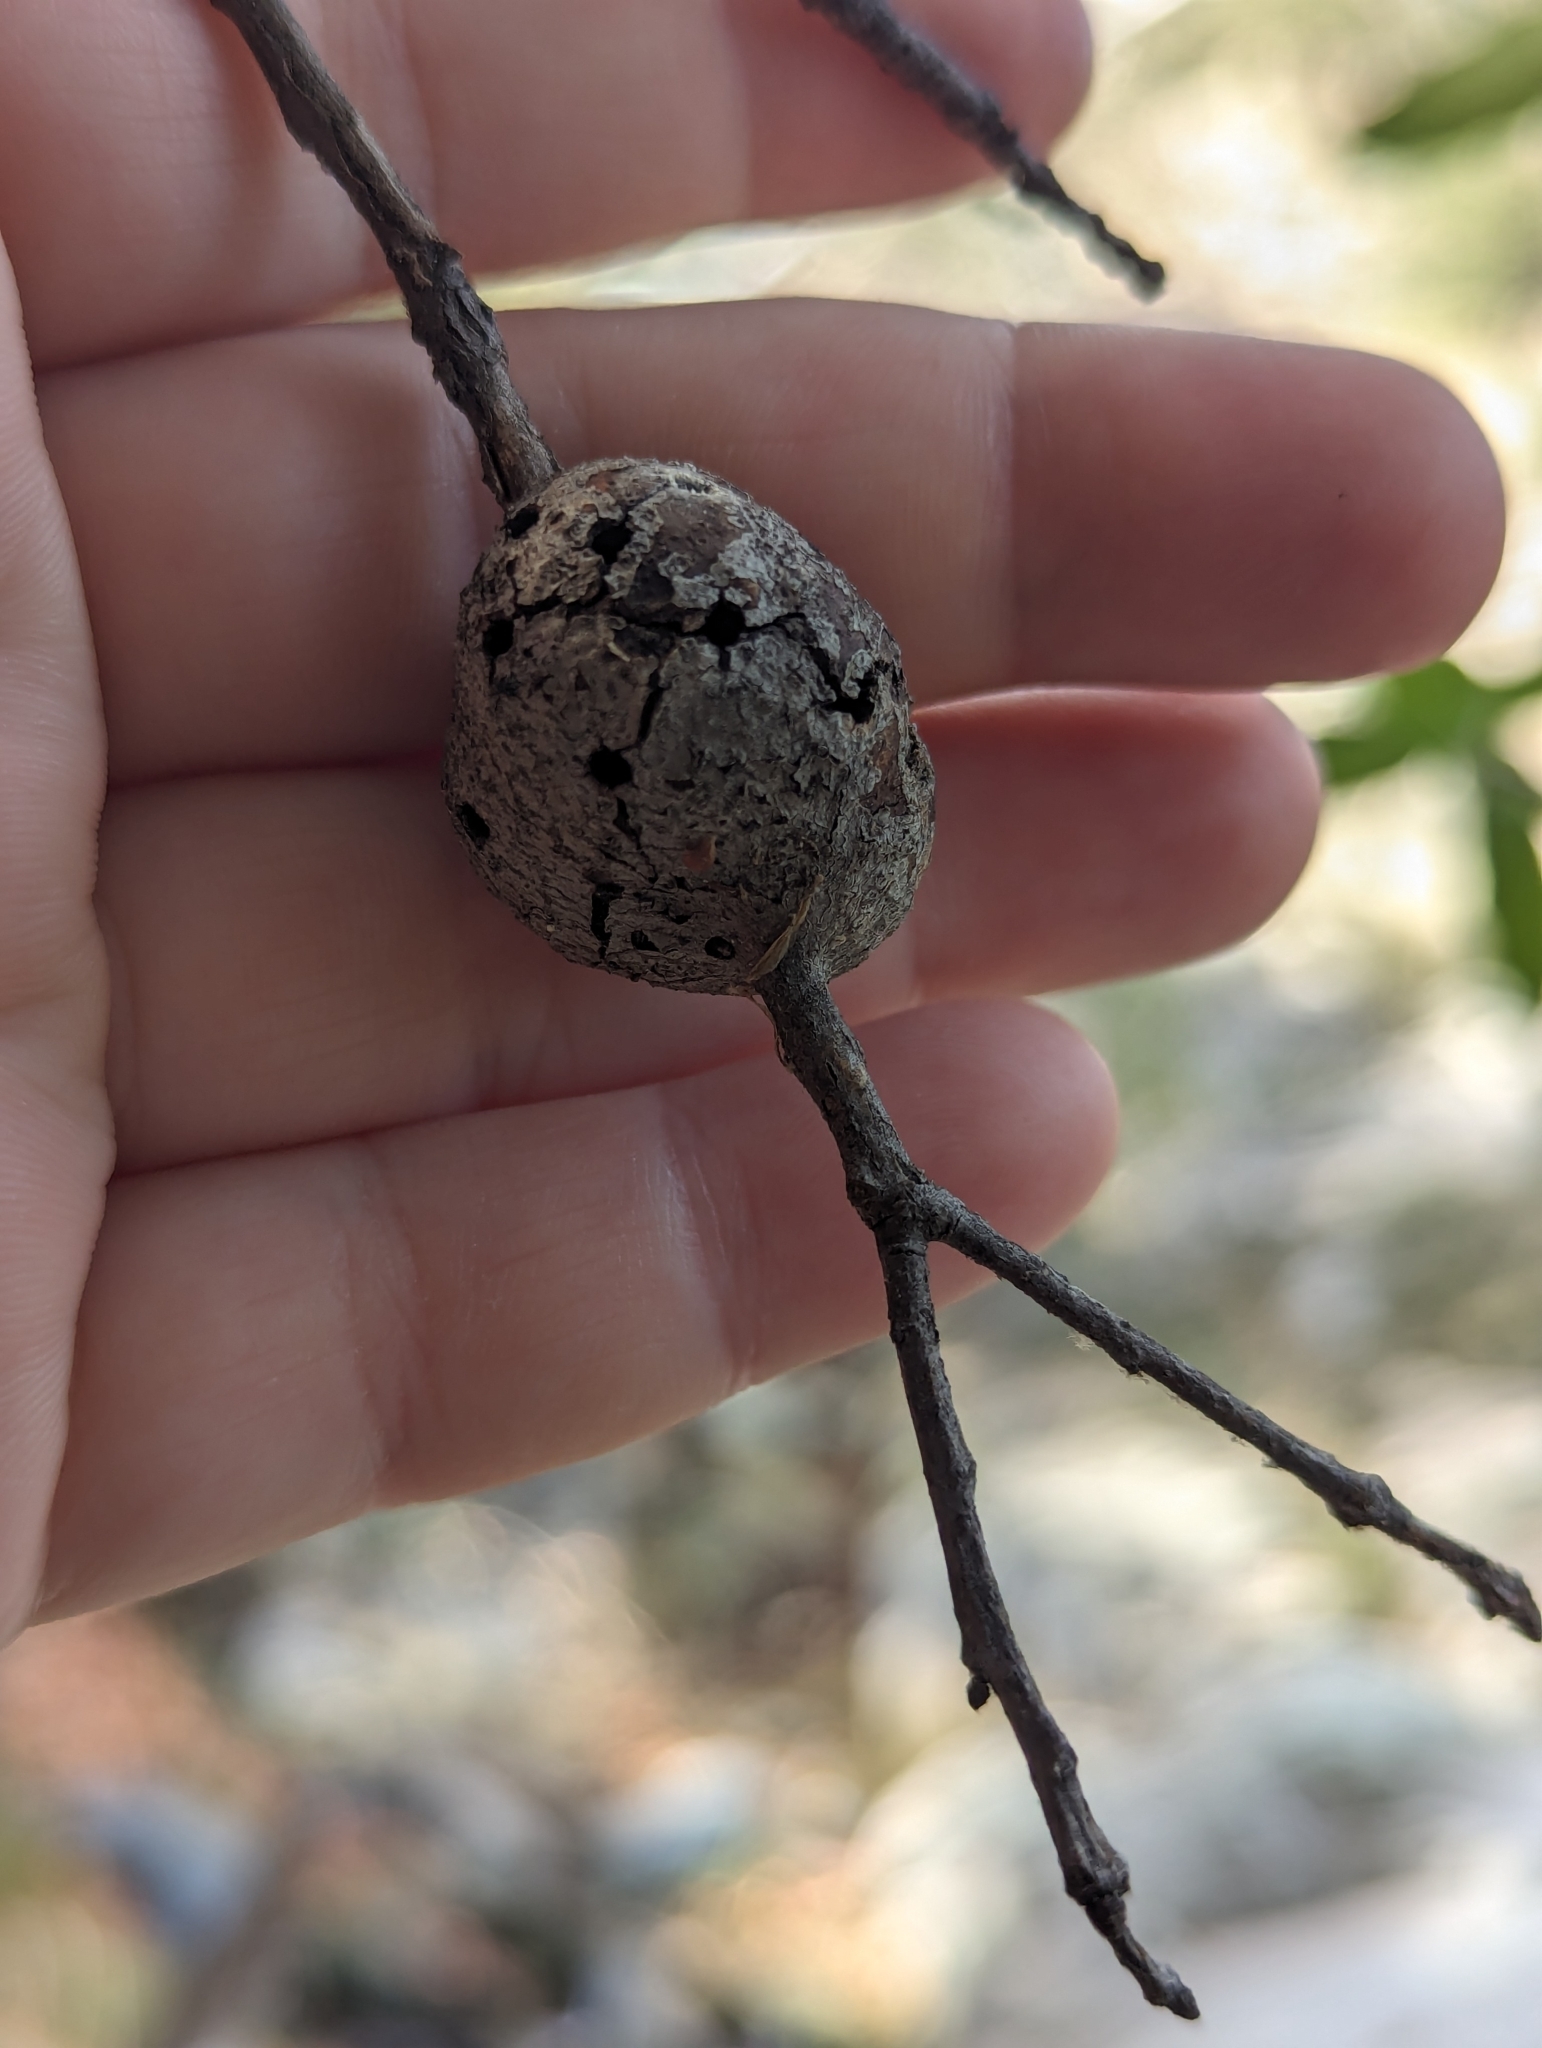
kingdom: Animalia
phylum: Arthropoda
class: Insecta
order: Hymenoptera
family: Cynipidae
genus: Kokkocynips
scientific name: Kokkocynips coxii
